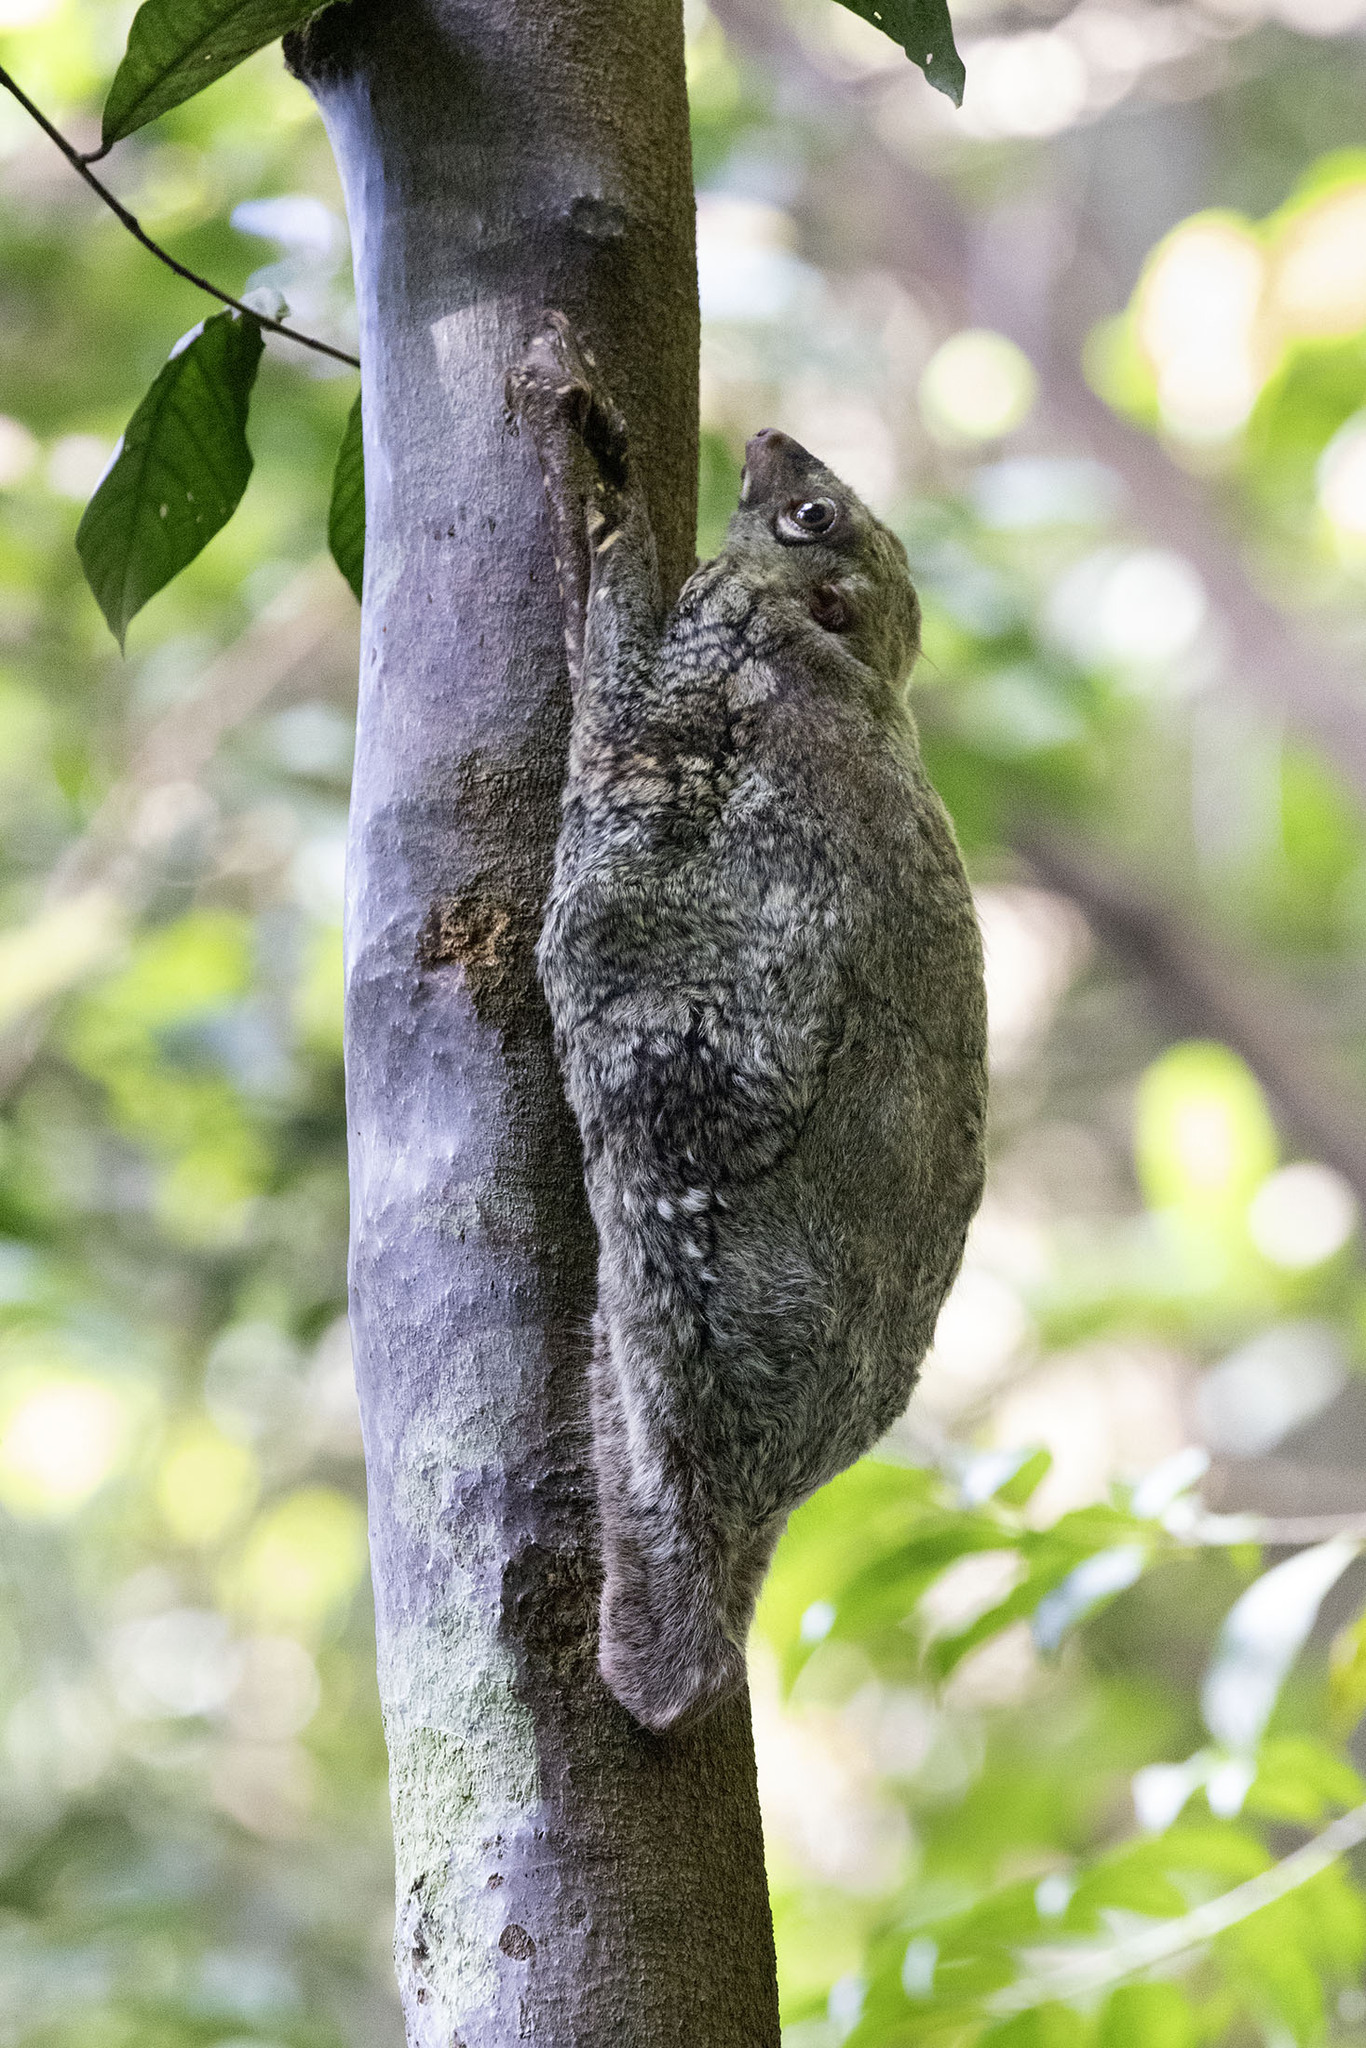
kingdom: Animalia
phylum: Chordata
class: Mammalia
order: Dermoptera
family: Cynocephalidae
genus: Galeopterus
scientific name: Galeopterus variegatus
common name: Sunda flying lemur
